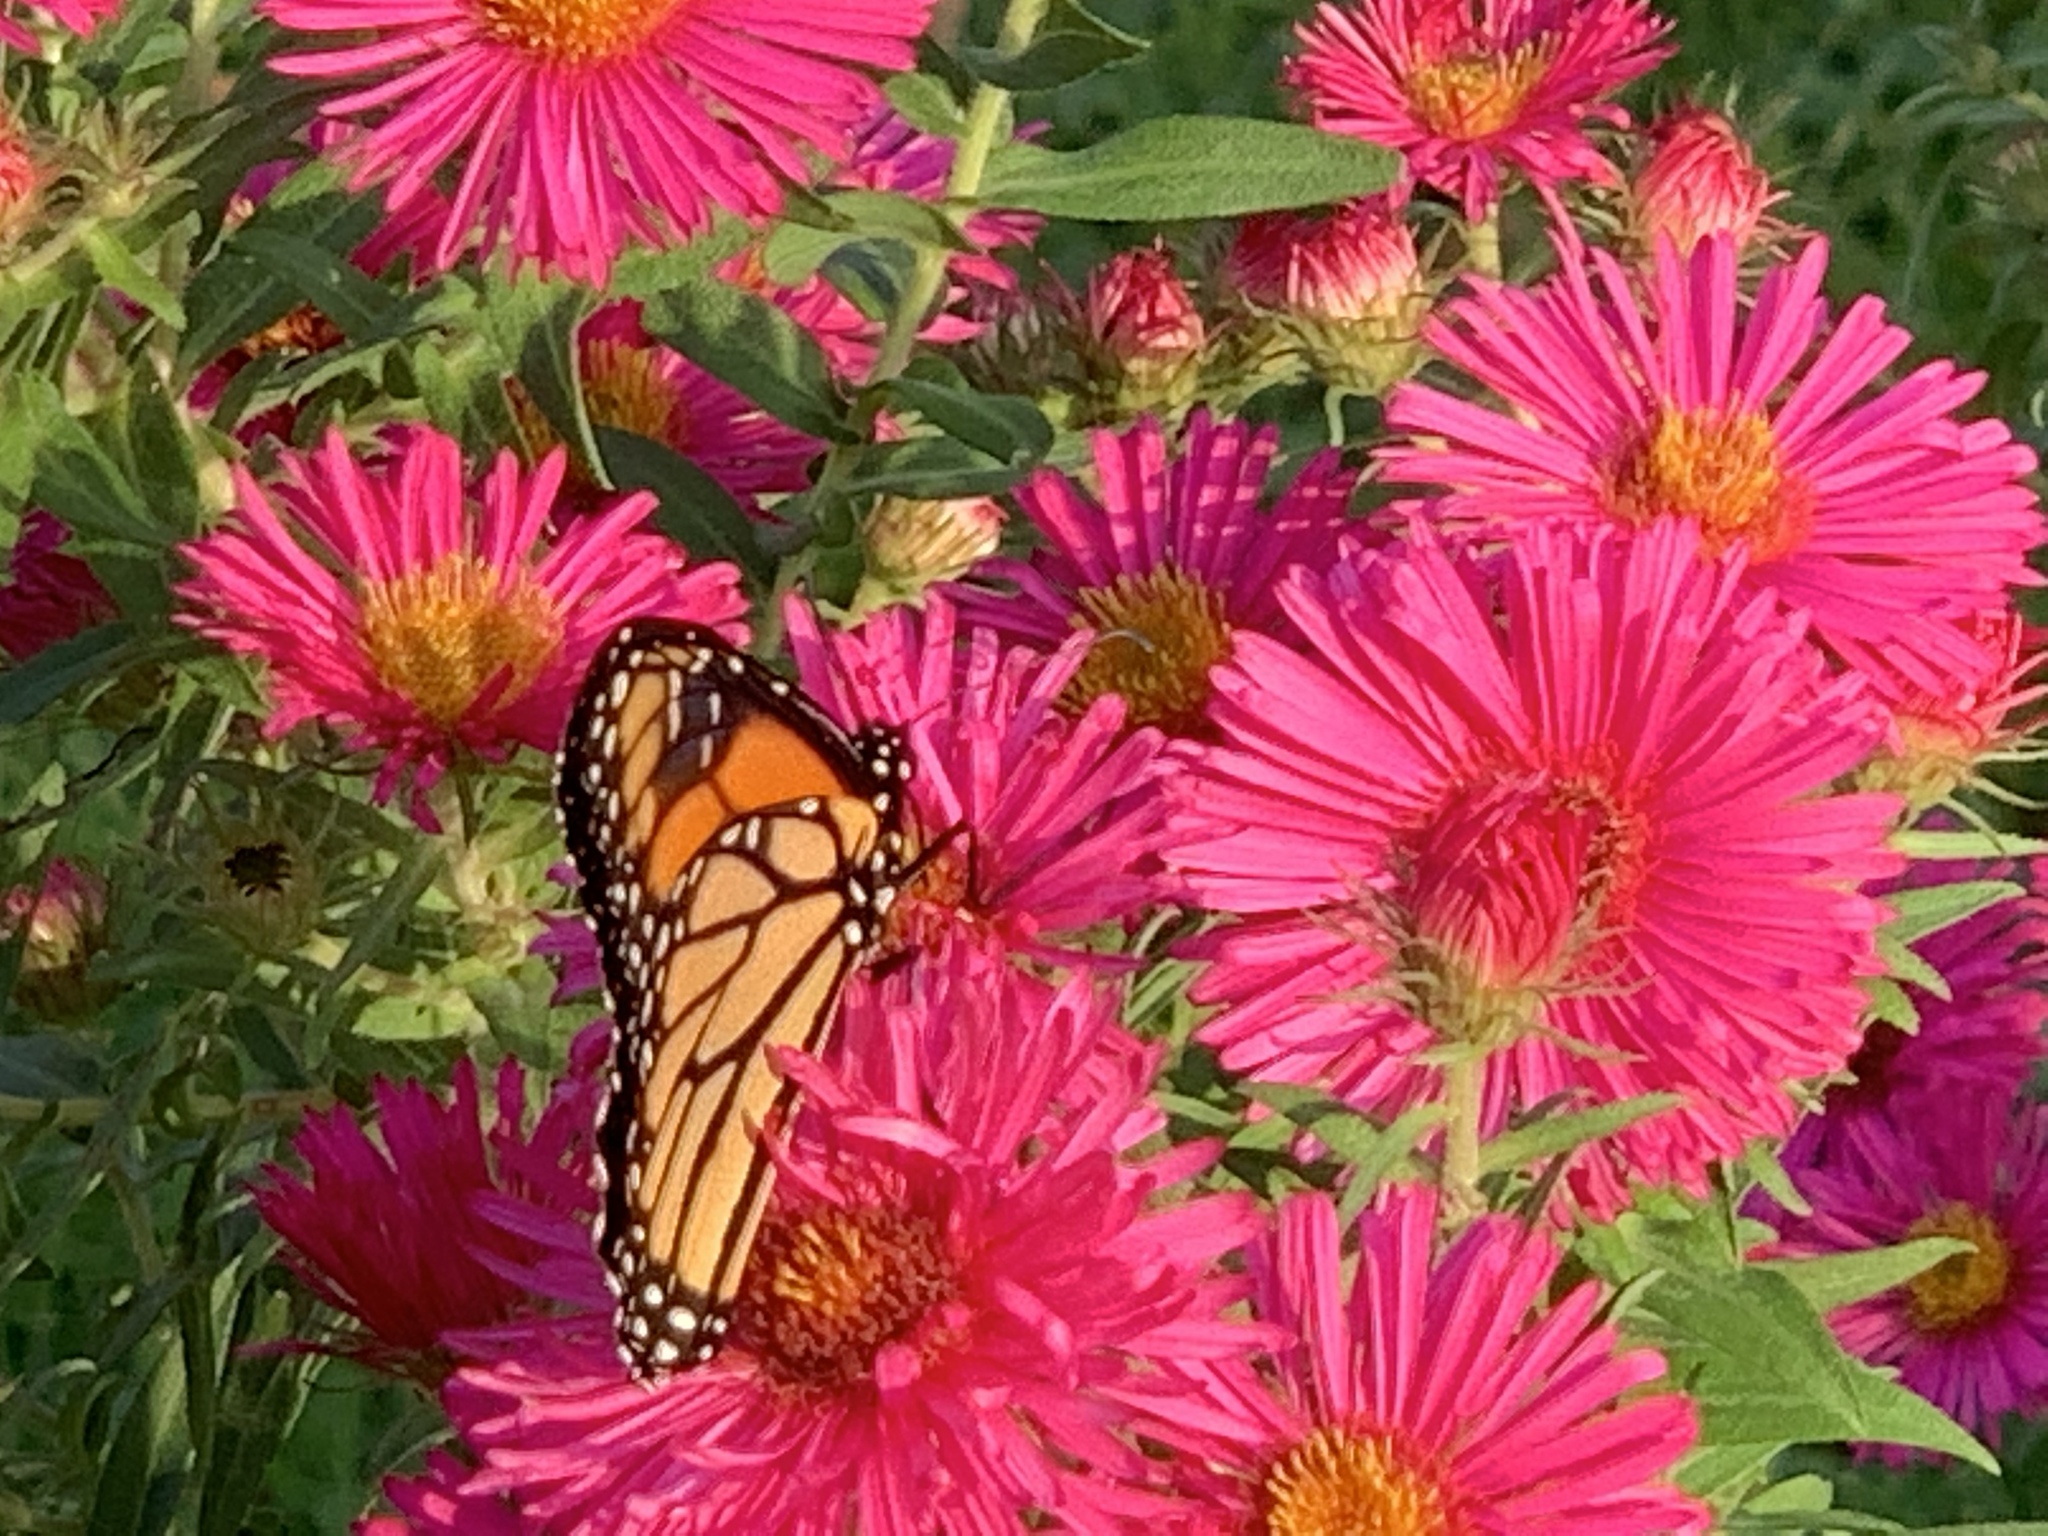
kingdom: Animalia
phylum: Arthropoda
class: Insecta
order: Lepidoptera
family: Nymphalidae
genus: Danaus
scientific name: Danaus plexippus
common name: Monarch
